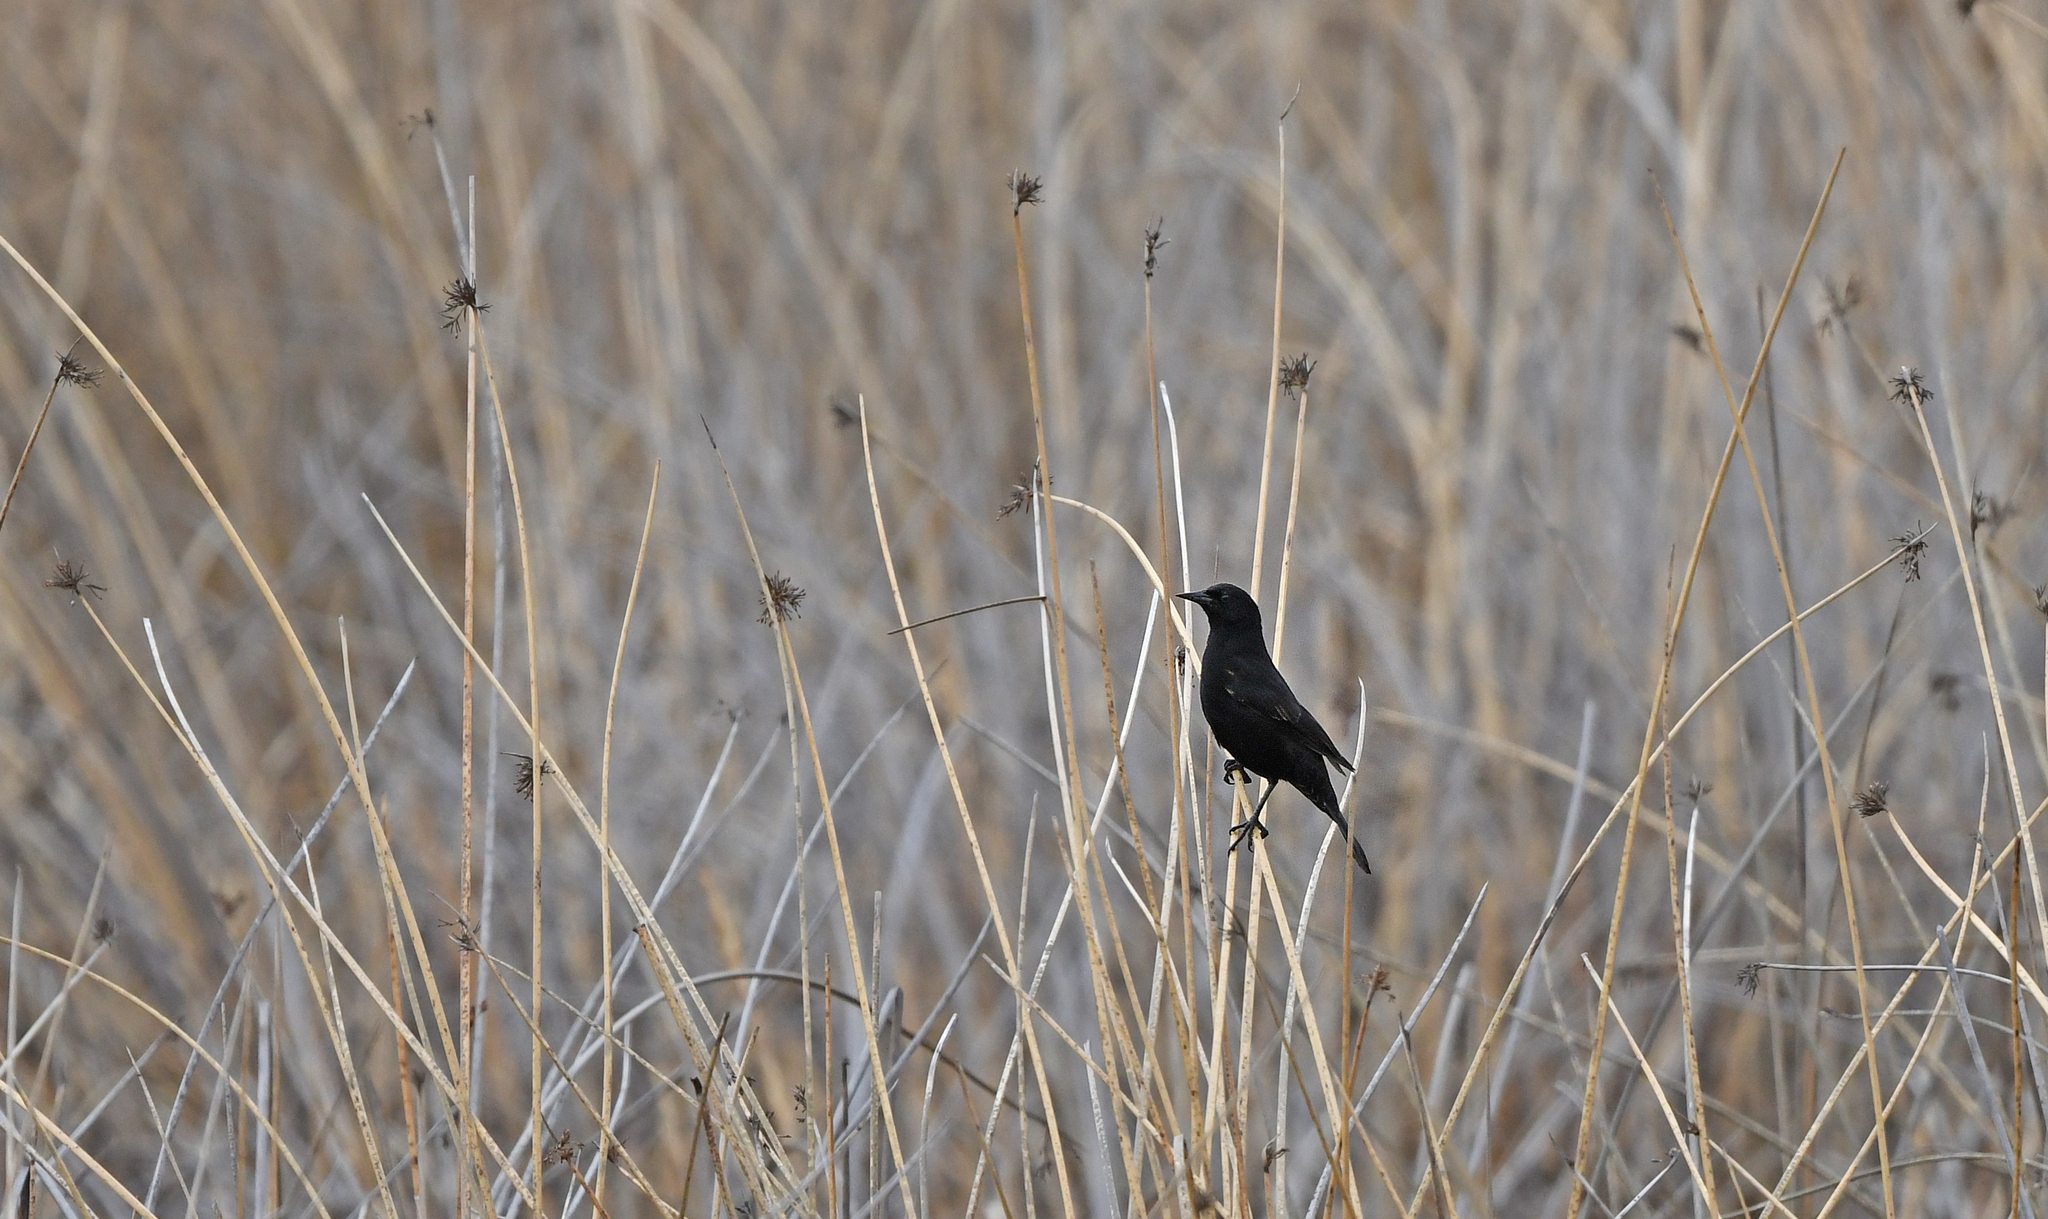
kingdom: Animalia
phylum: Chordata
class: Aves
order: Passeriformes
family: Icteridae
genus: Agelasticus
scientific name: Agelasticus thilius
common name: Yellow-winged blackbird
